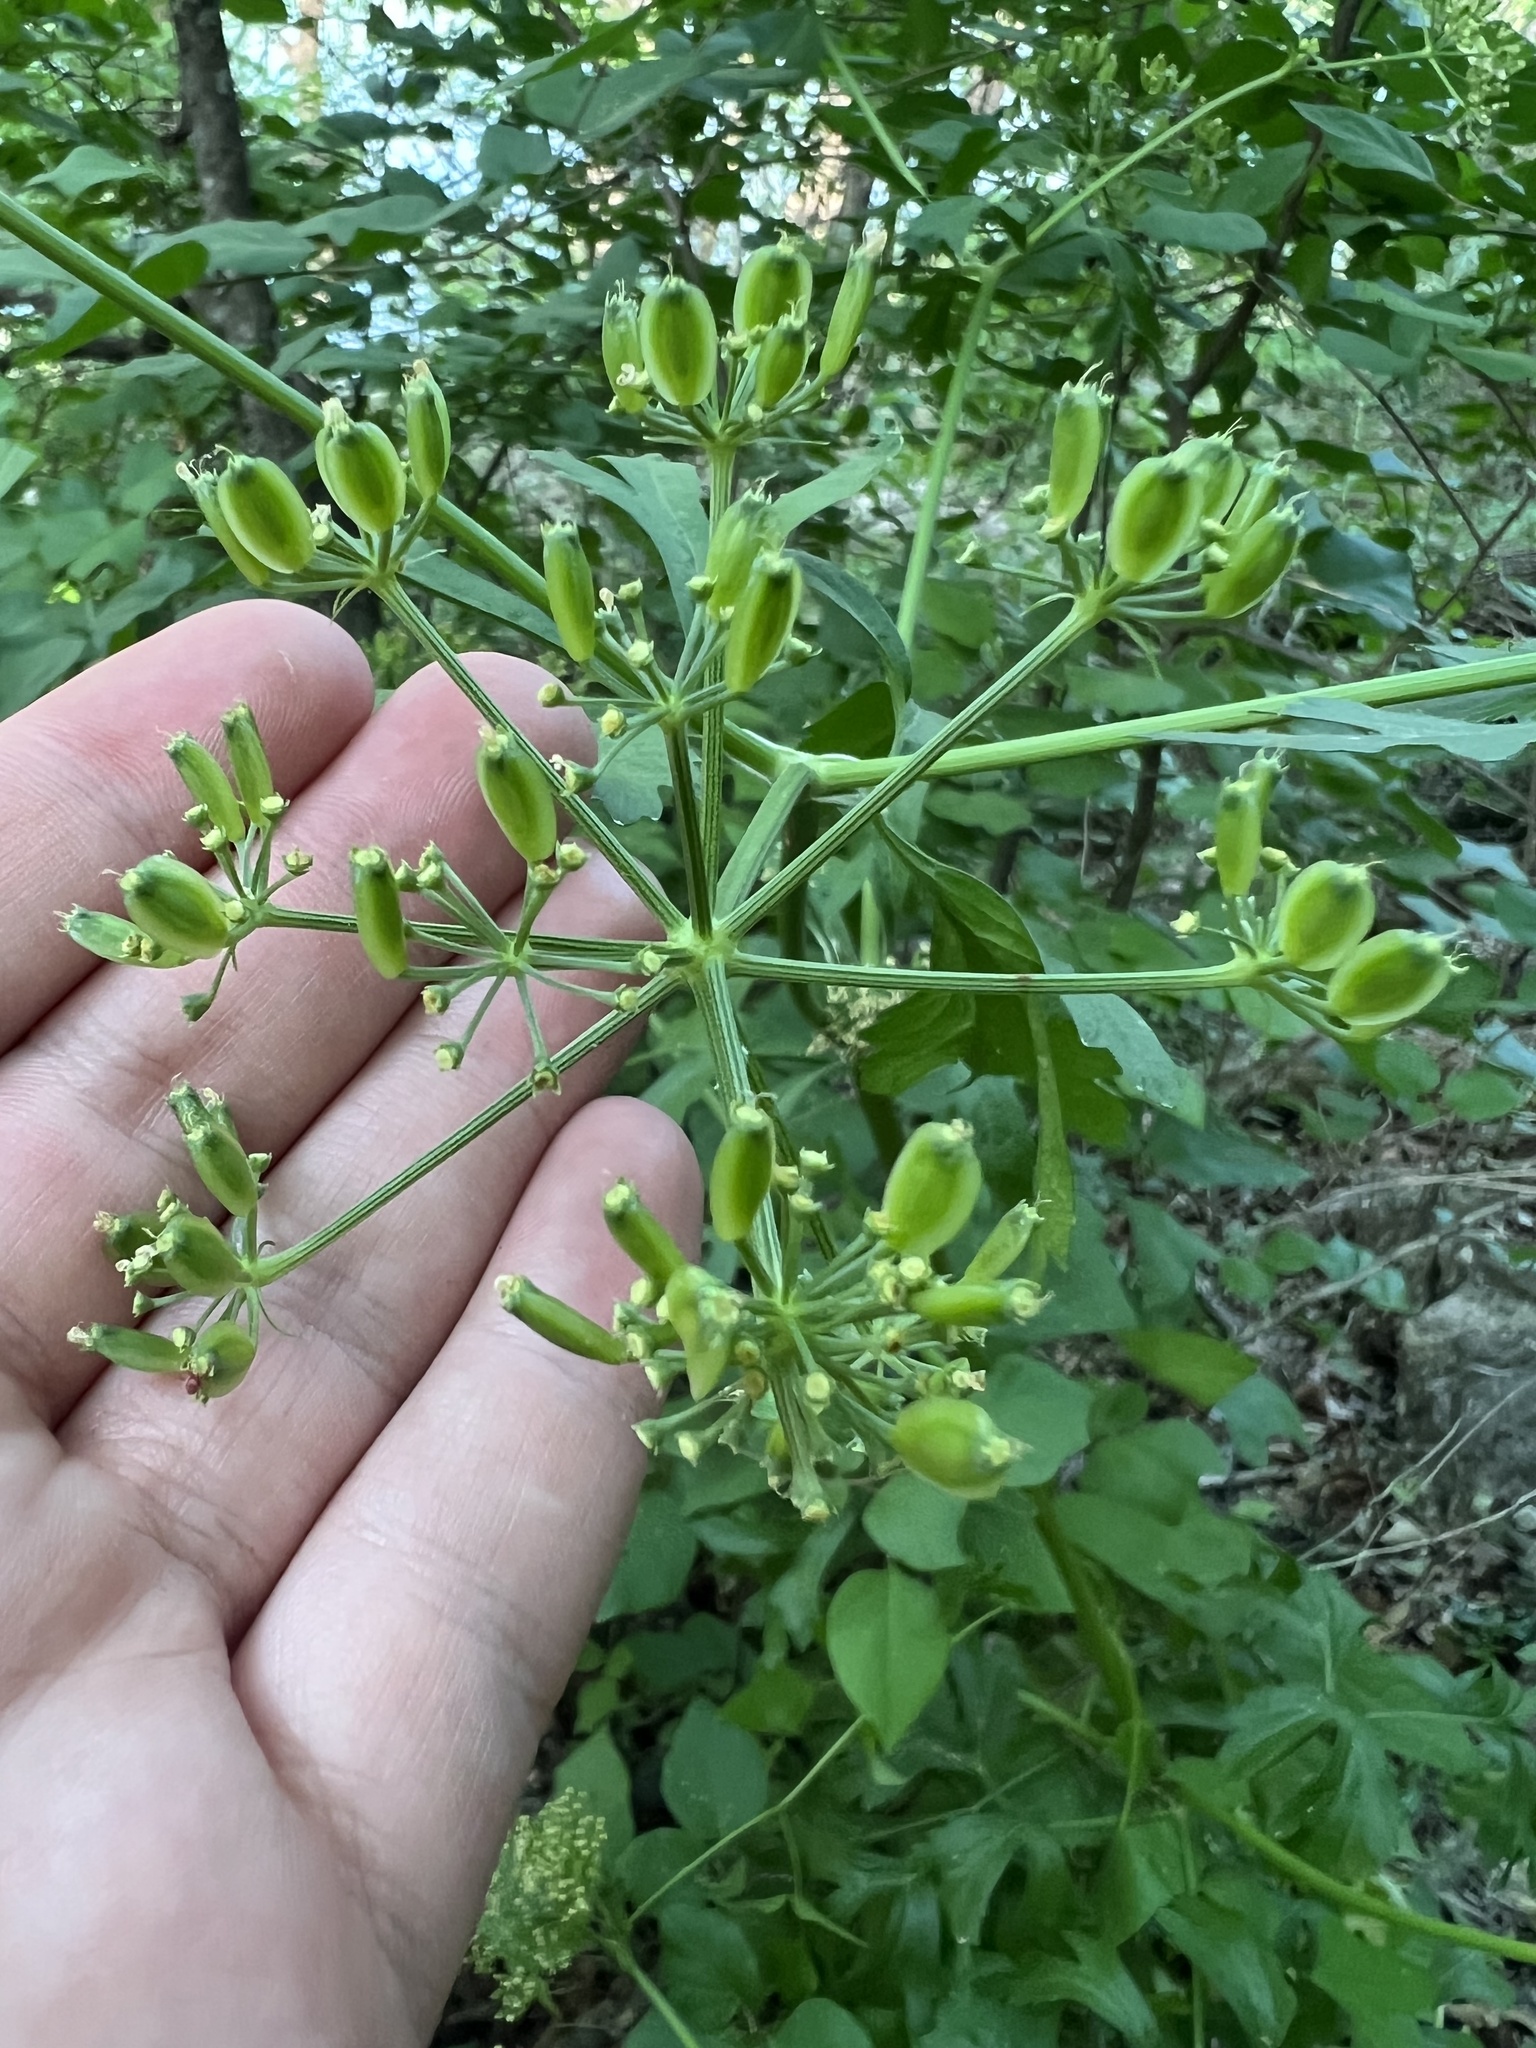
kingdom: Plantae
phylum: Tracheophyta
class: Magnoliopsida
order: Apiales
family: Apiaceae
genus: Polytaenia
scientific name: Polytaenia albiflora
